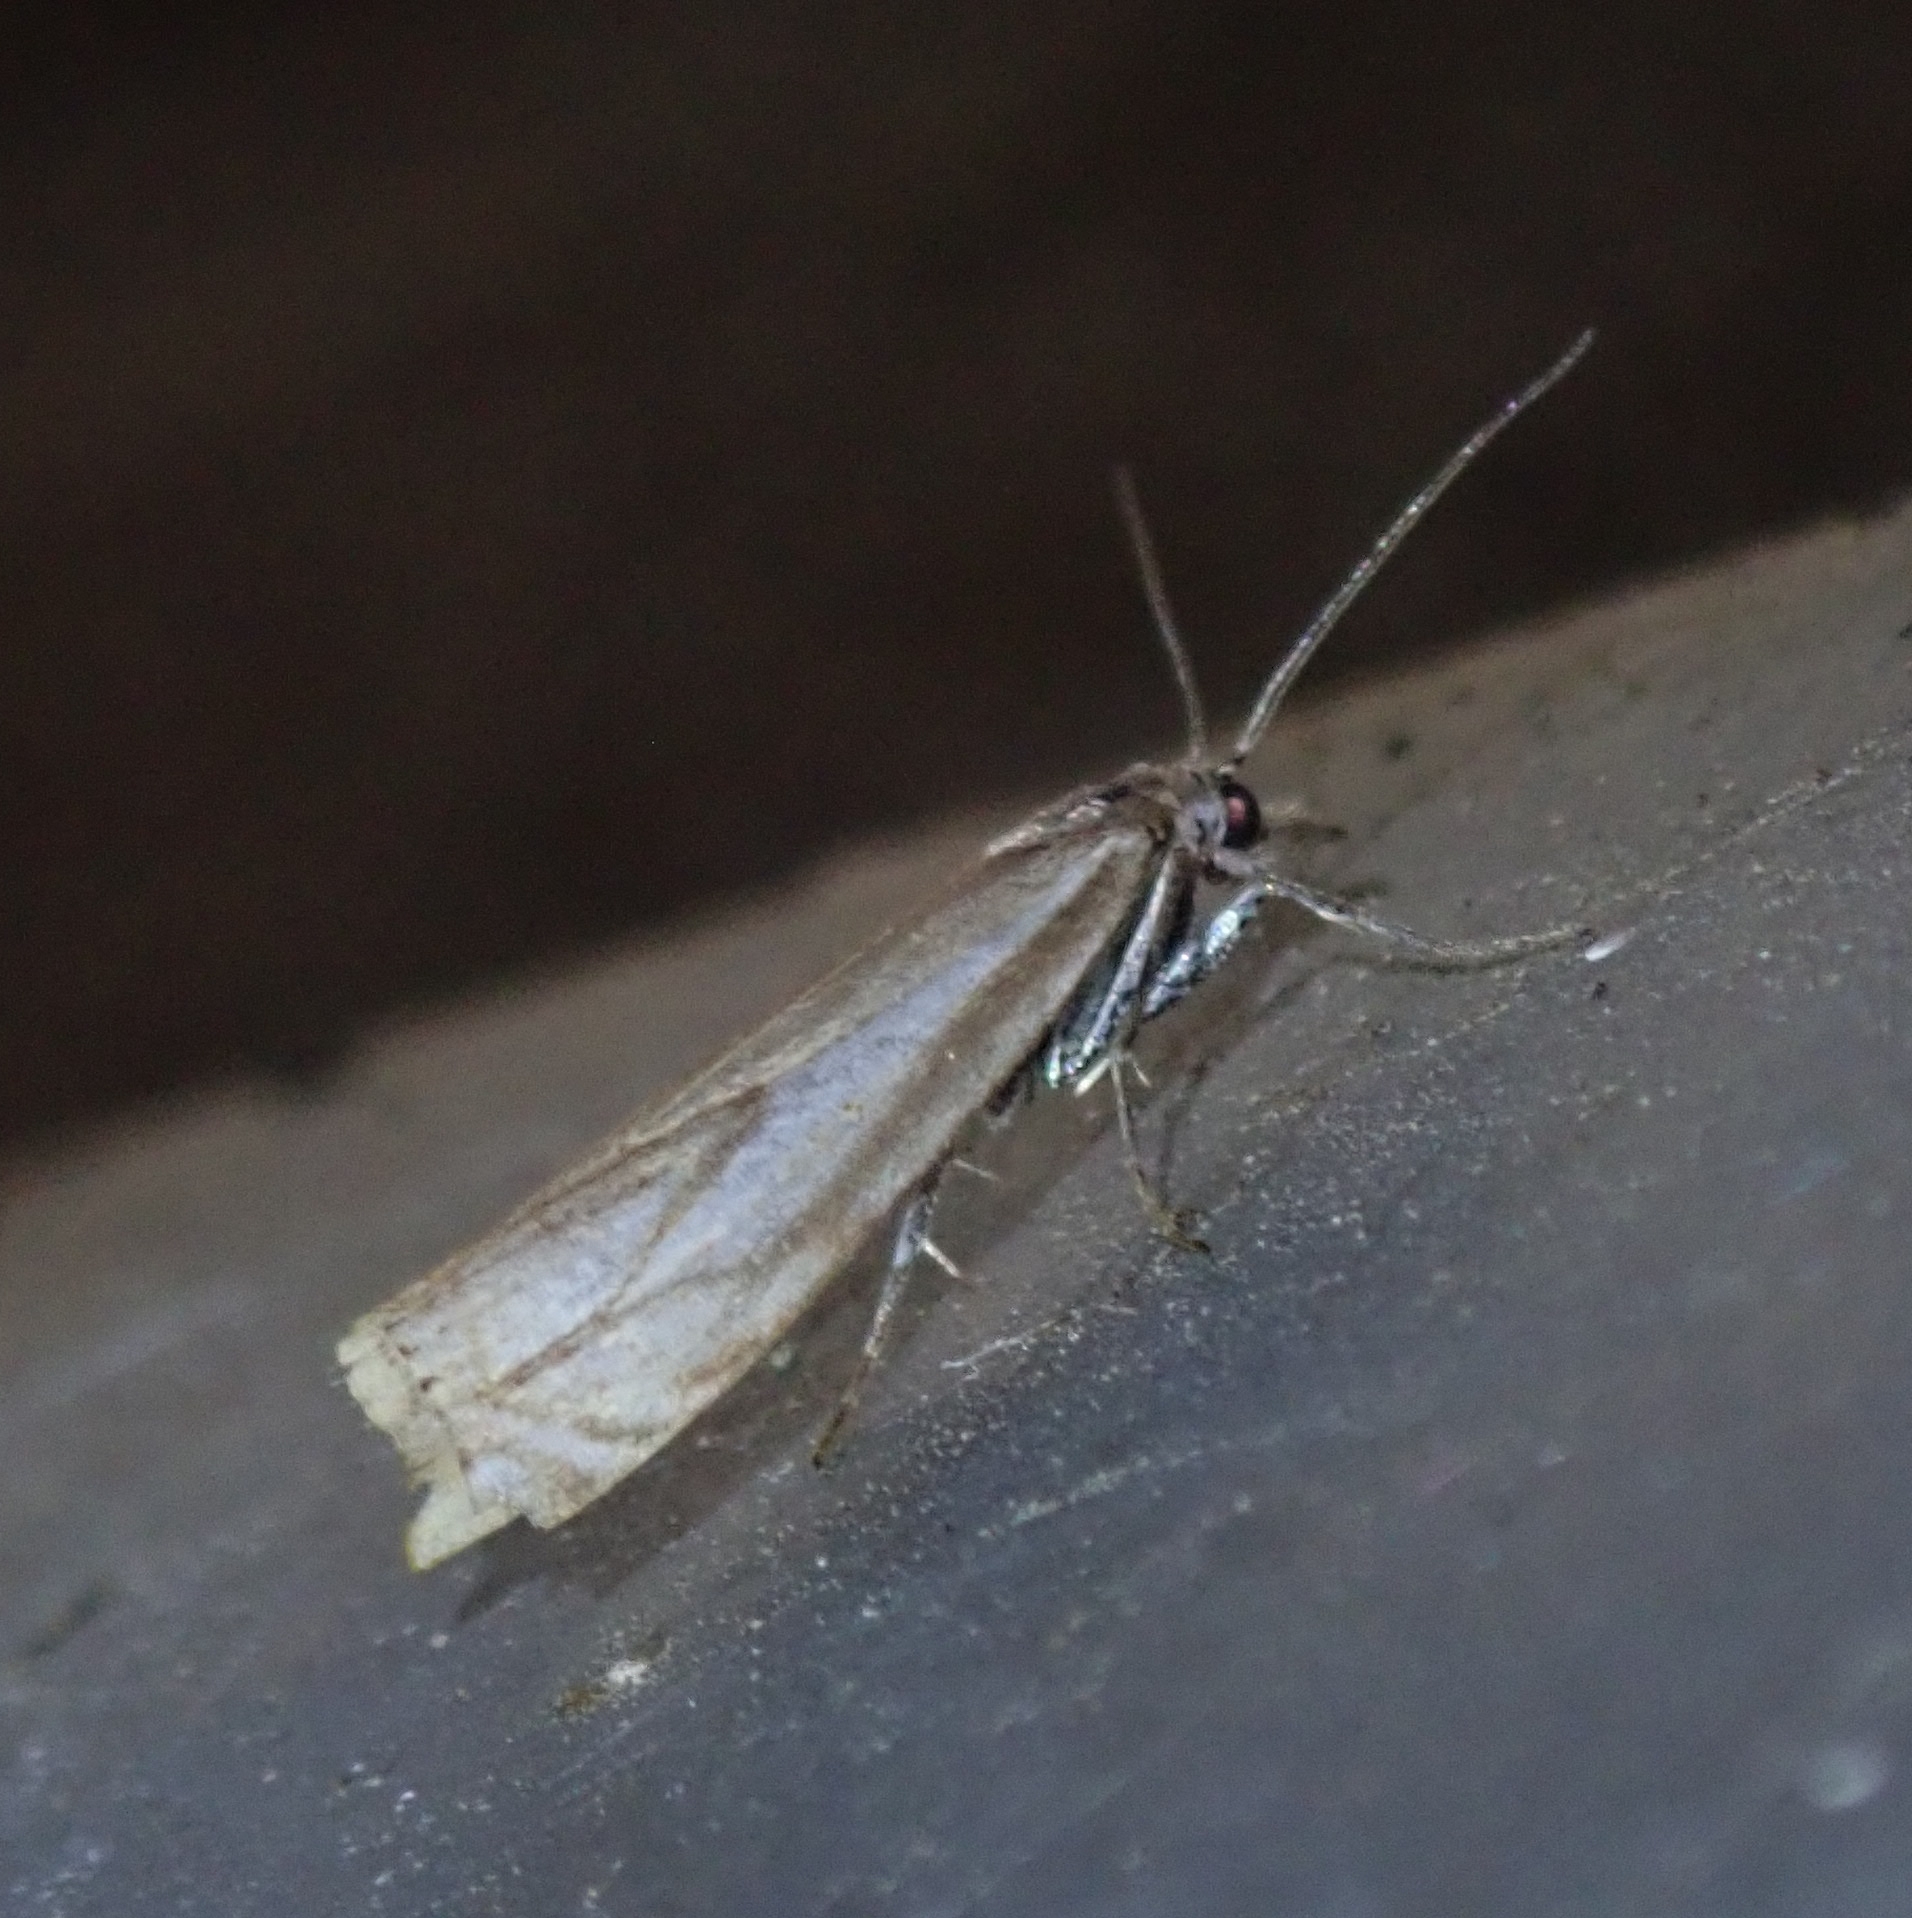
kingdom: Animalia
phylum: Arthropoda
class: Insecta
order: Lepidoptera
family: Crambidae
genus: Crambus
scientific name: Crambus nemorella
